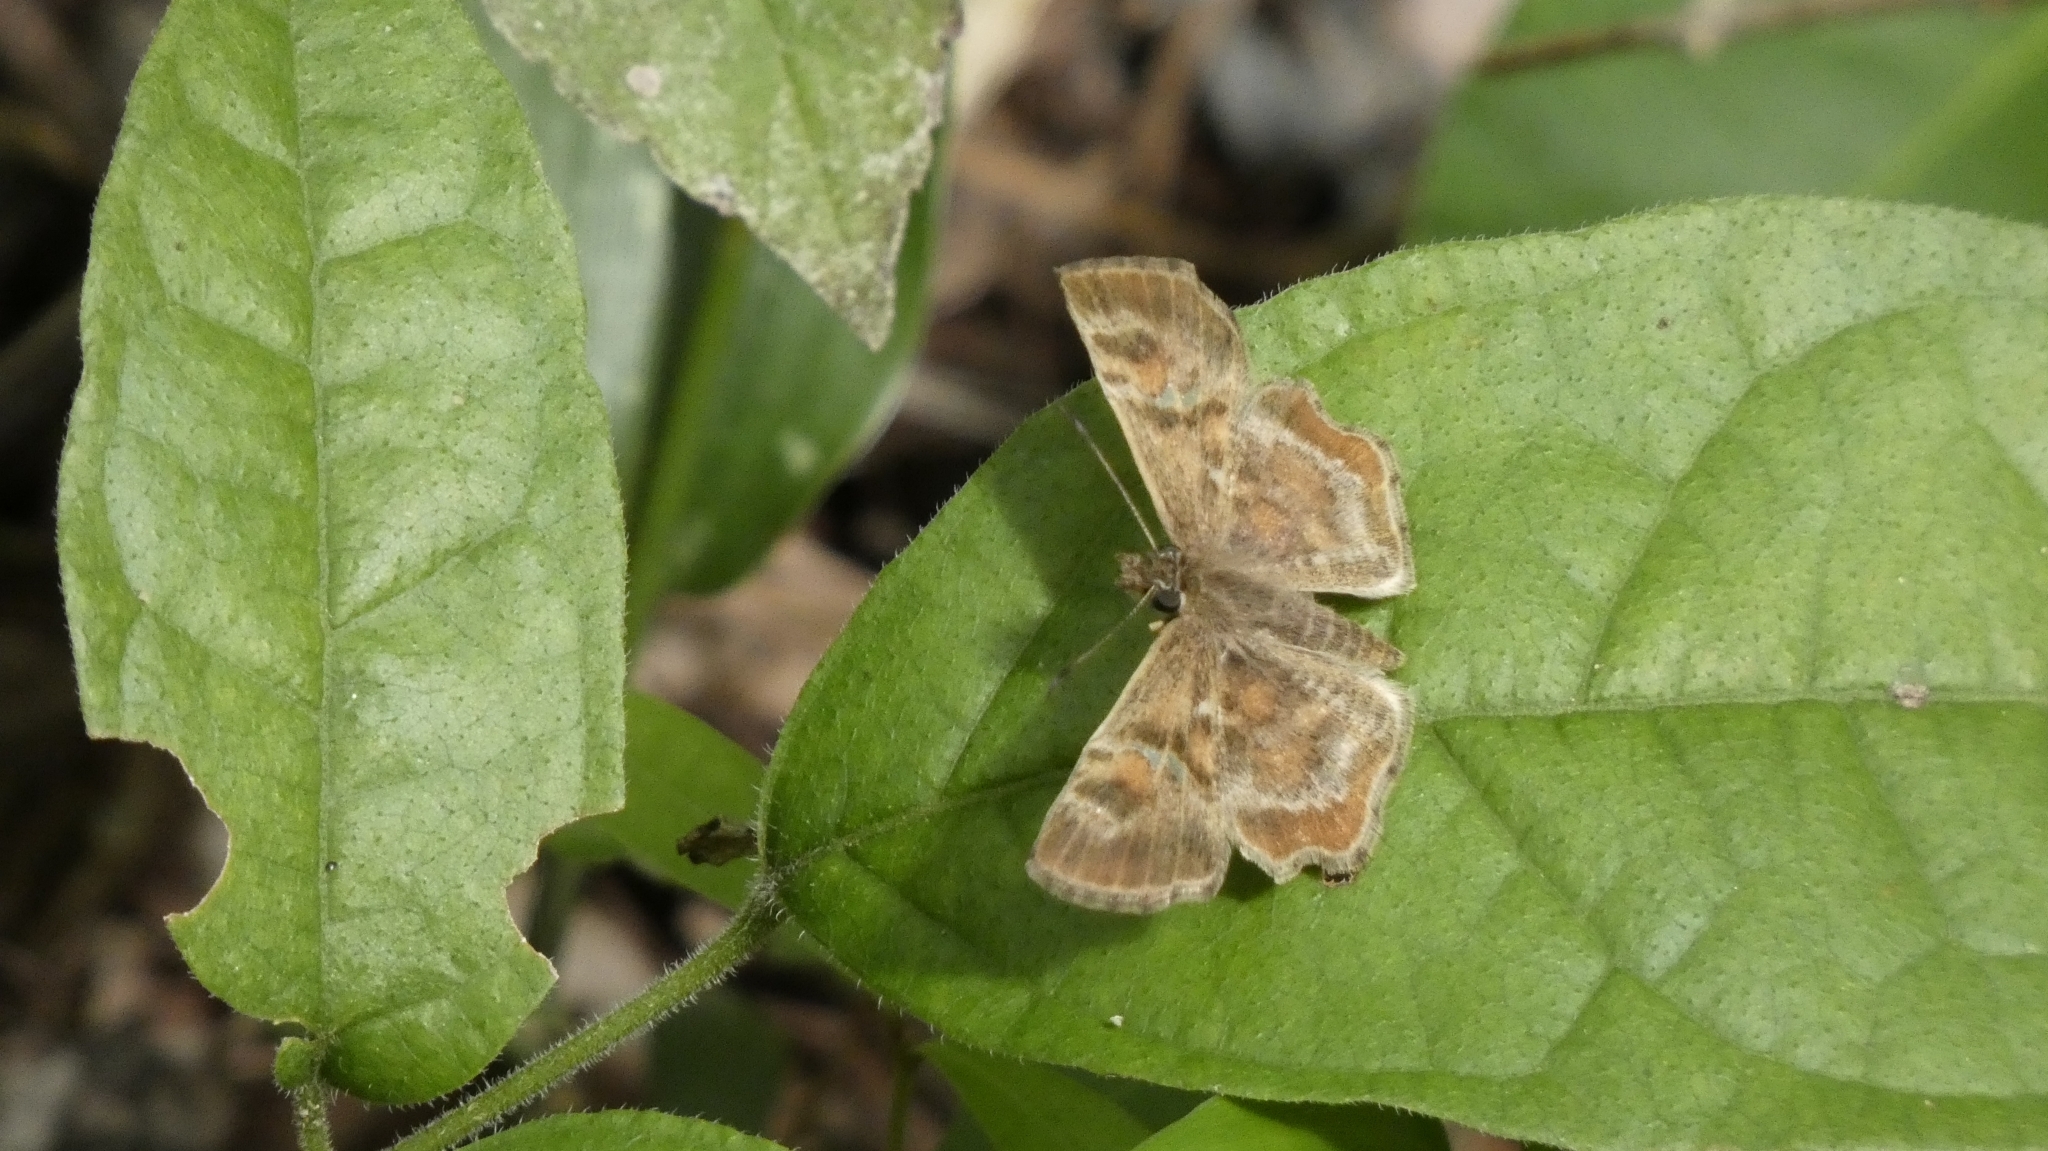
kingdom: Animalia
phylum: Arthropoda
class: Insecta
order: Lepidoptera
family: Hesperiidae
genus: Systasea
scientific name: Systasea pulverulenta
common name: Texas powdered skipper
